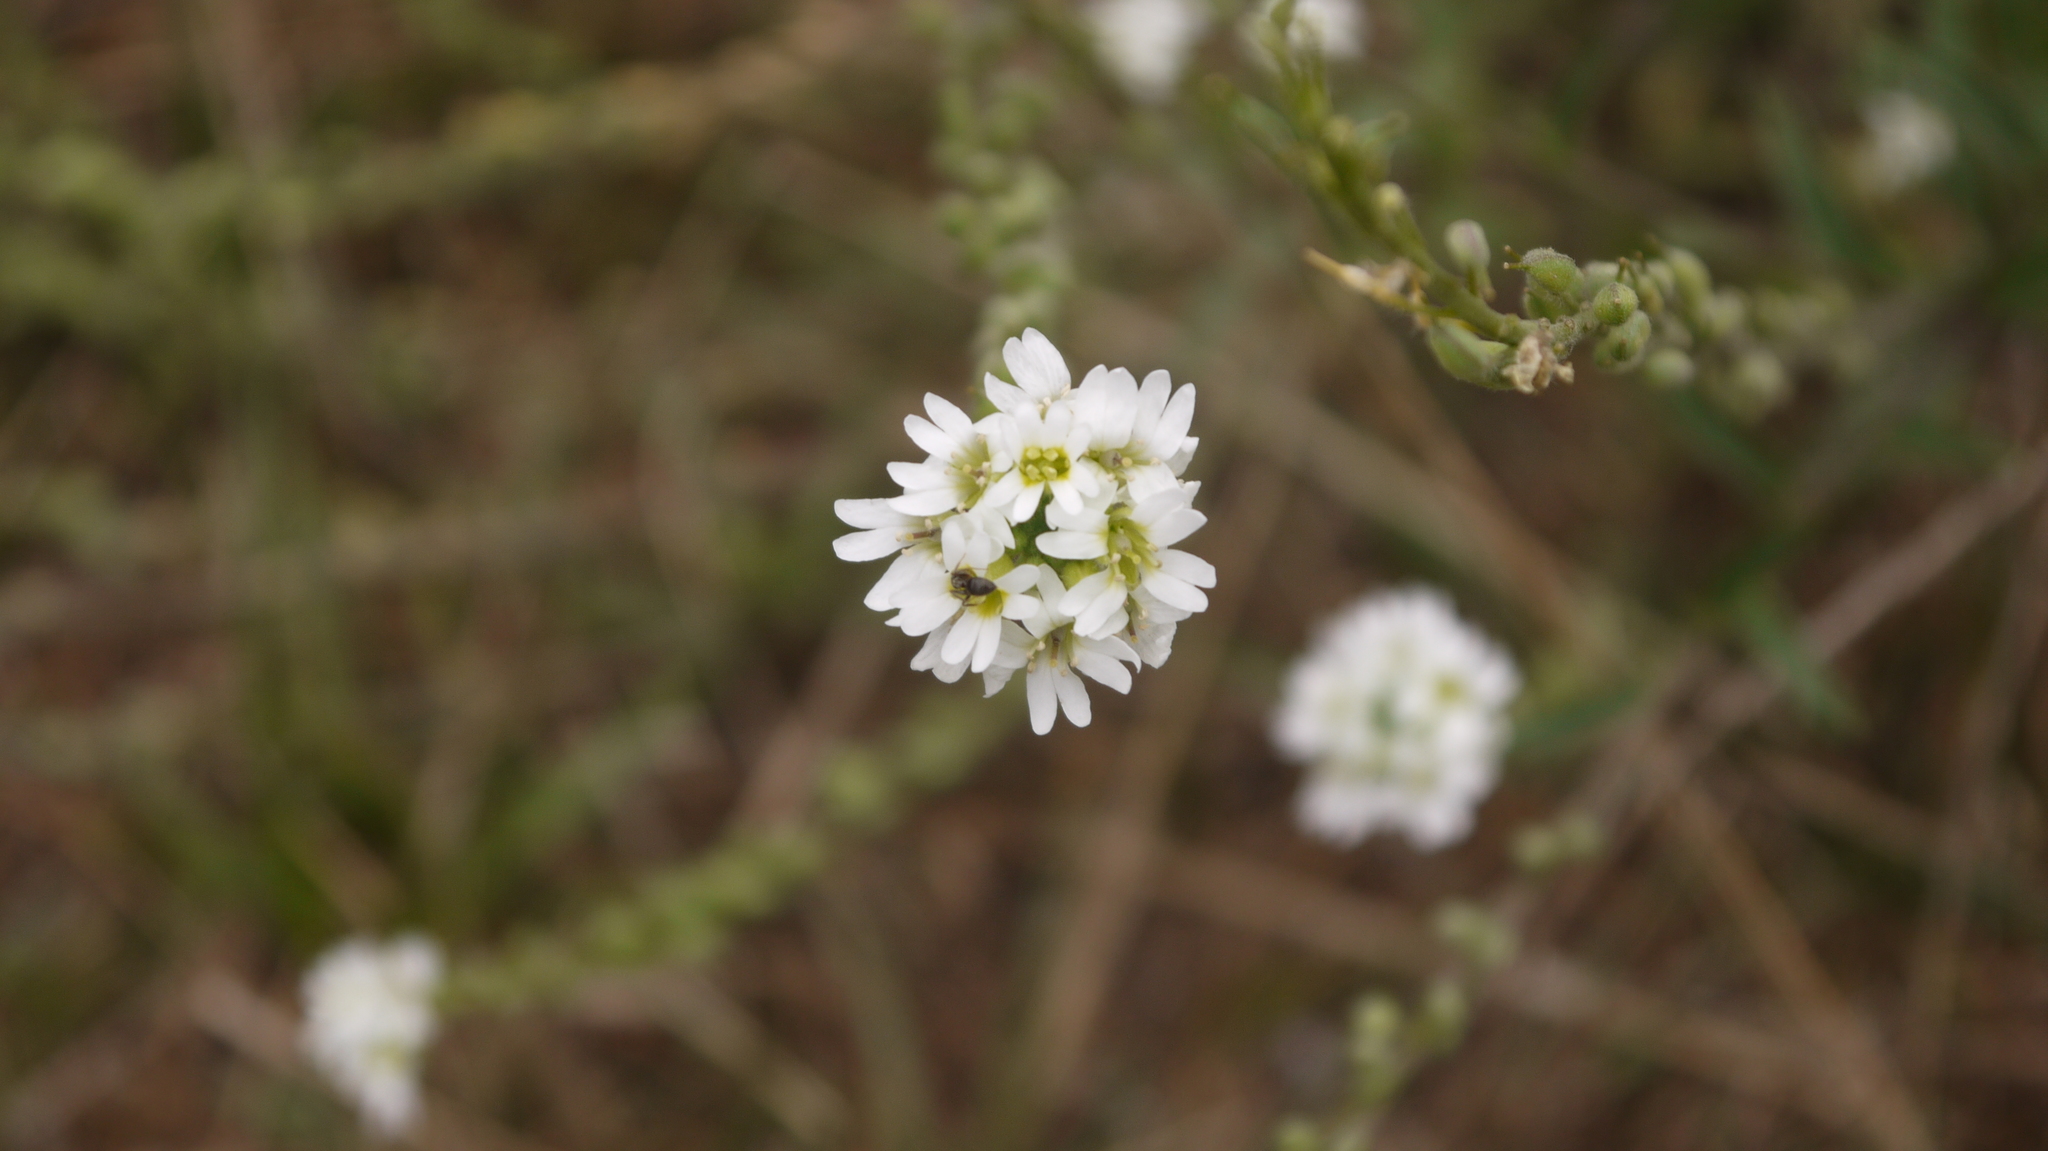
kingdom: Plantae
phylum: Tracheophyta
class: Magnoliopsida
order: Brassicales
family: Brassicaceae
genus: Berteroa
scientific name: Berteroa incana
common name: Hoary alison
